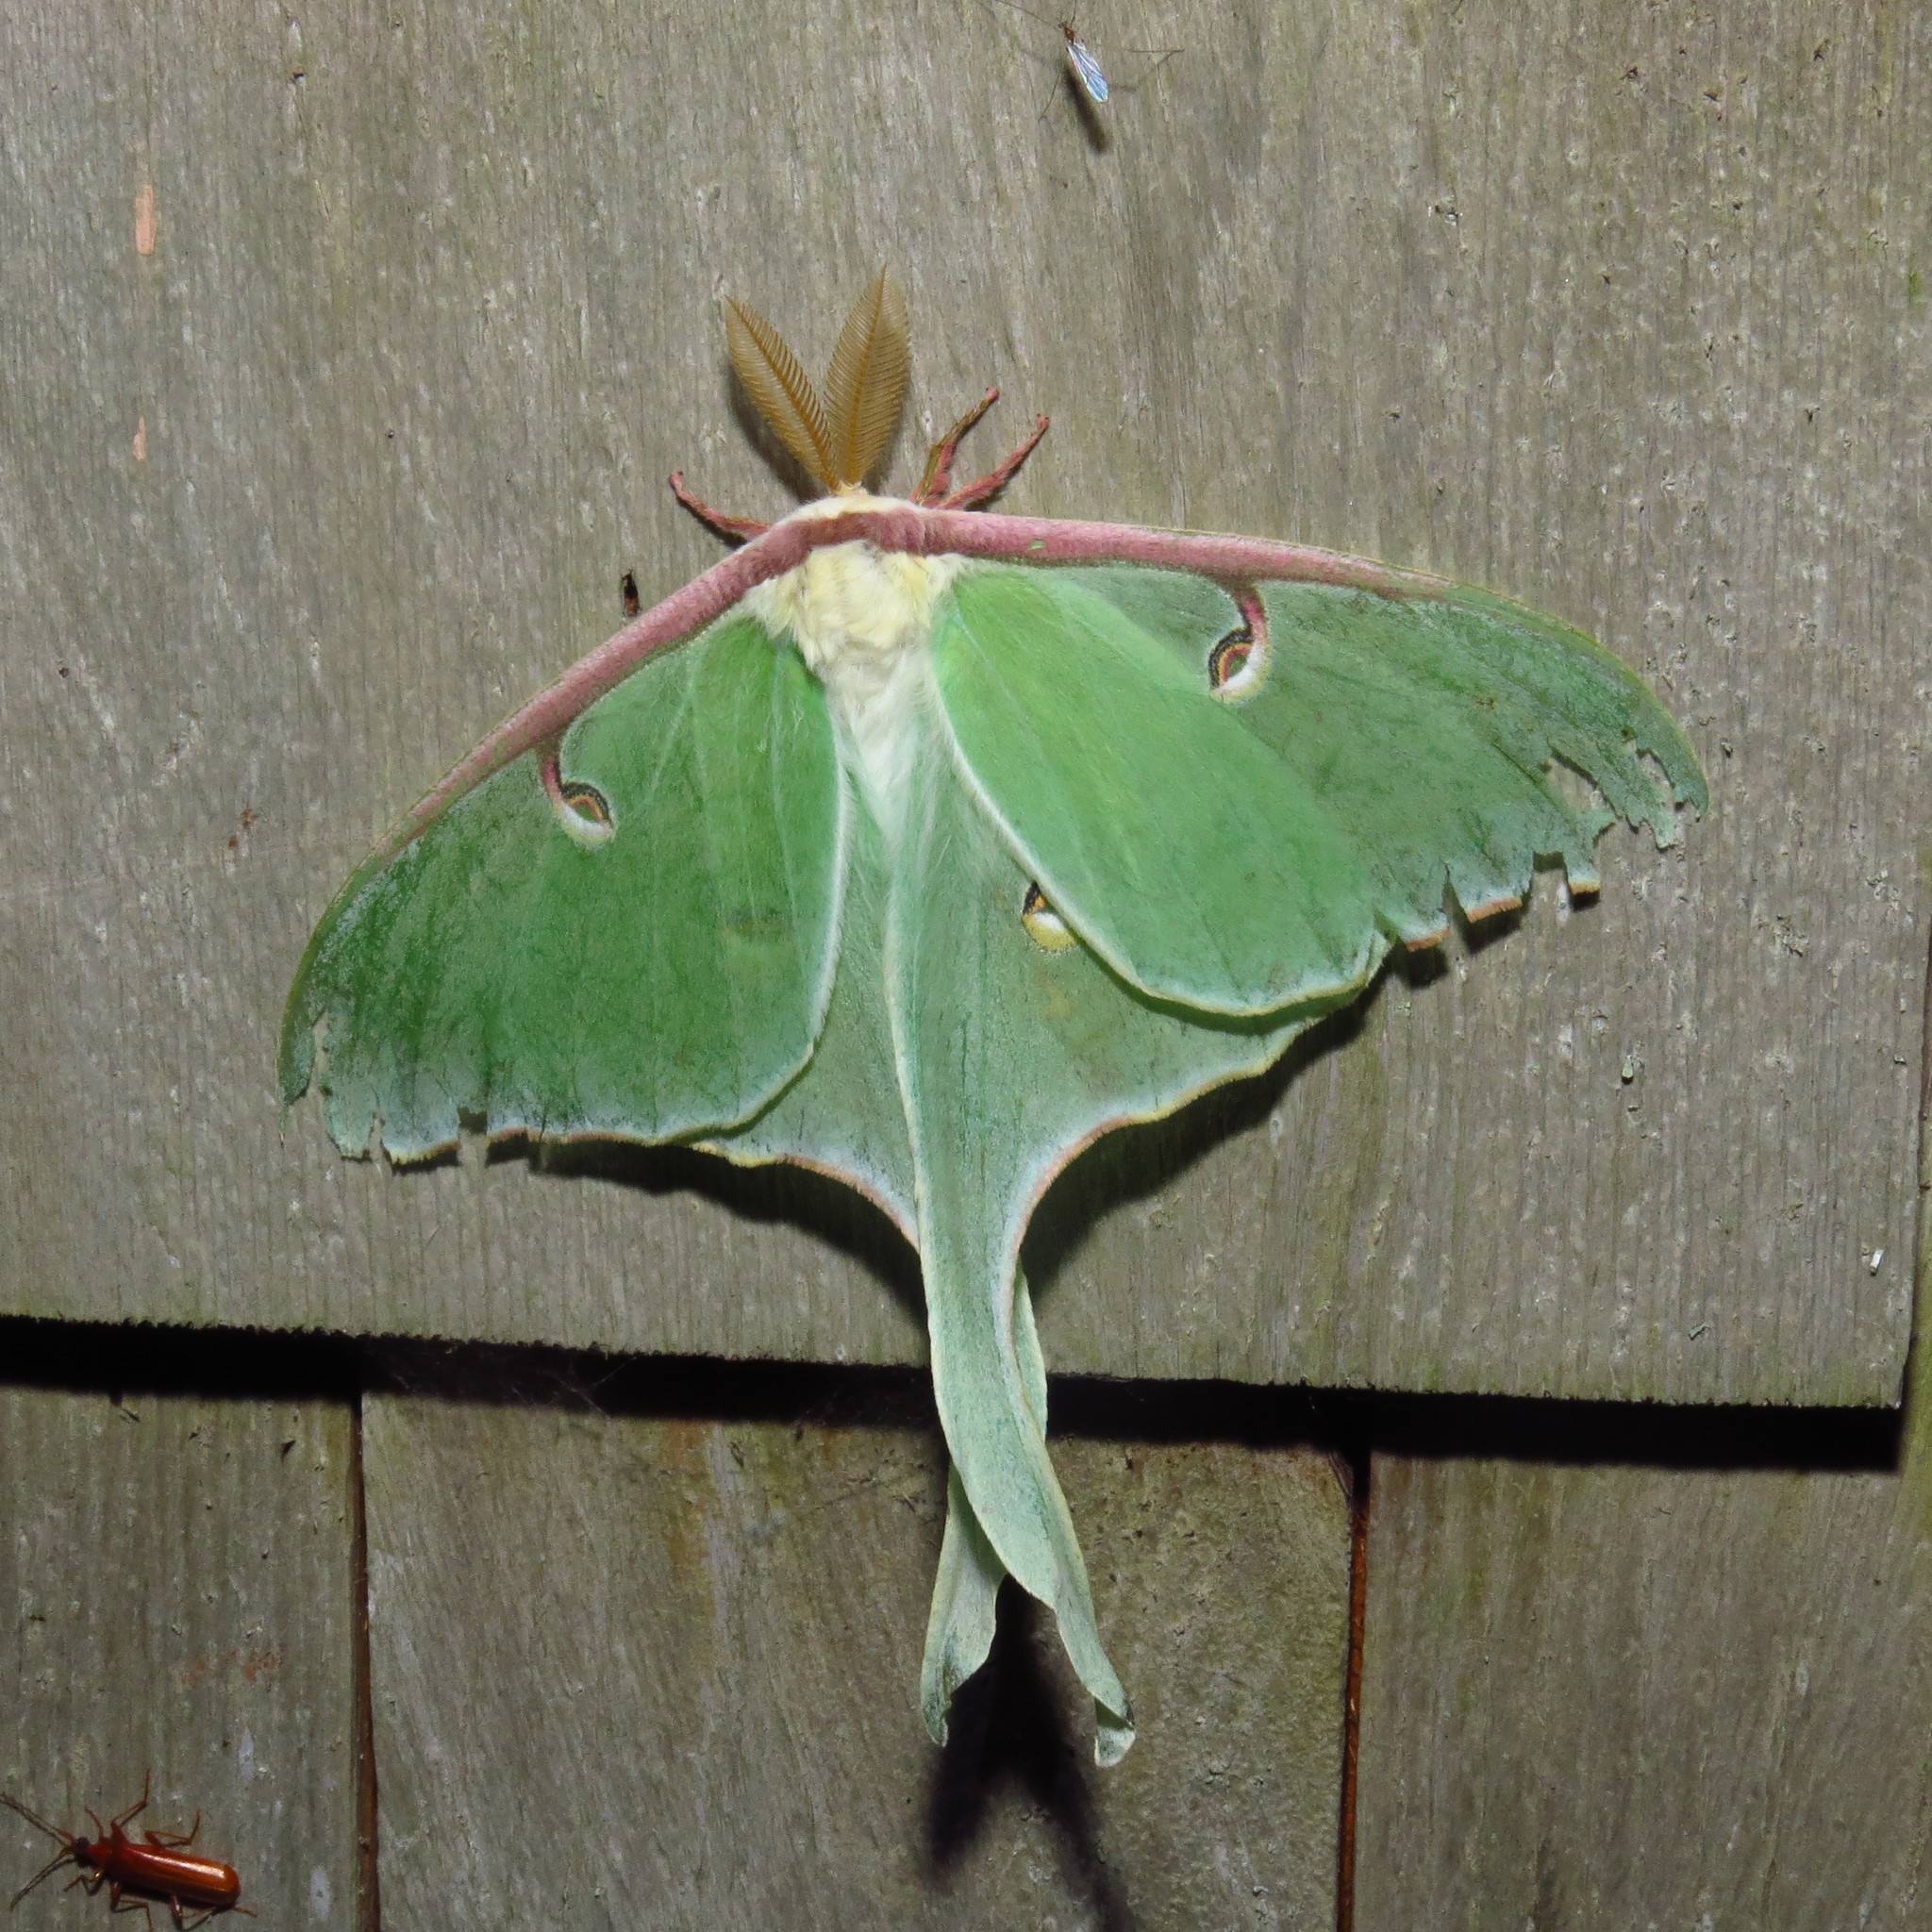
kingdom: Animalia
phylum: Arthropoda
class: Insecta
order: Lepidoptera
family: Saturniidae
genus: Actias
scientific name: Actias luna
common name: Luna moth
